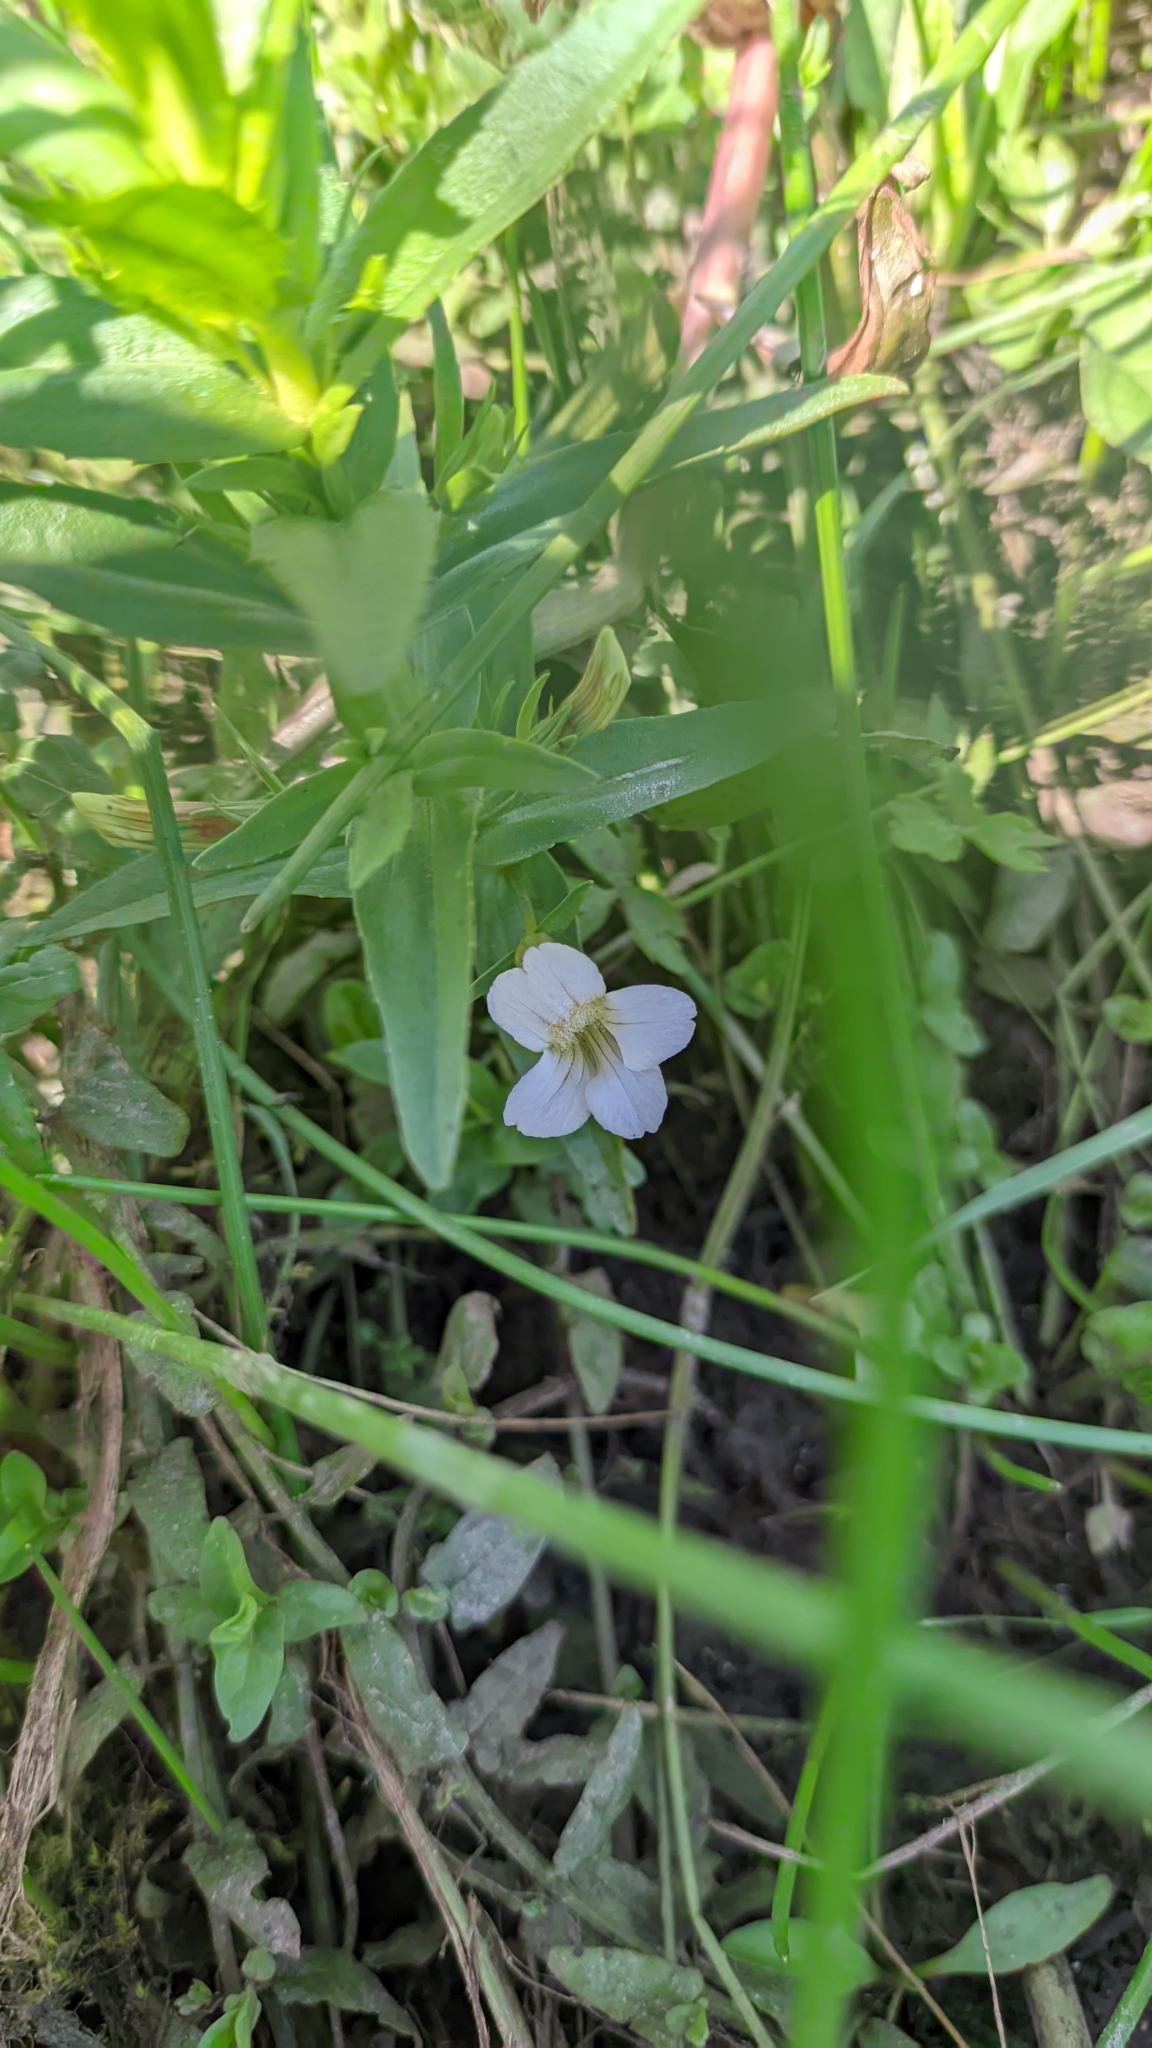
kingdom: Plantae
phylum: Tracheophyta
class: Magnoliopsida
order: Lamiales
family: Plantaginaceae
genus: Gratiola
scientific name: Gratiola officinalis
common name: Gratiola
